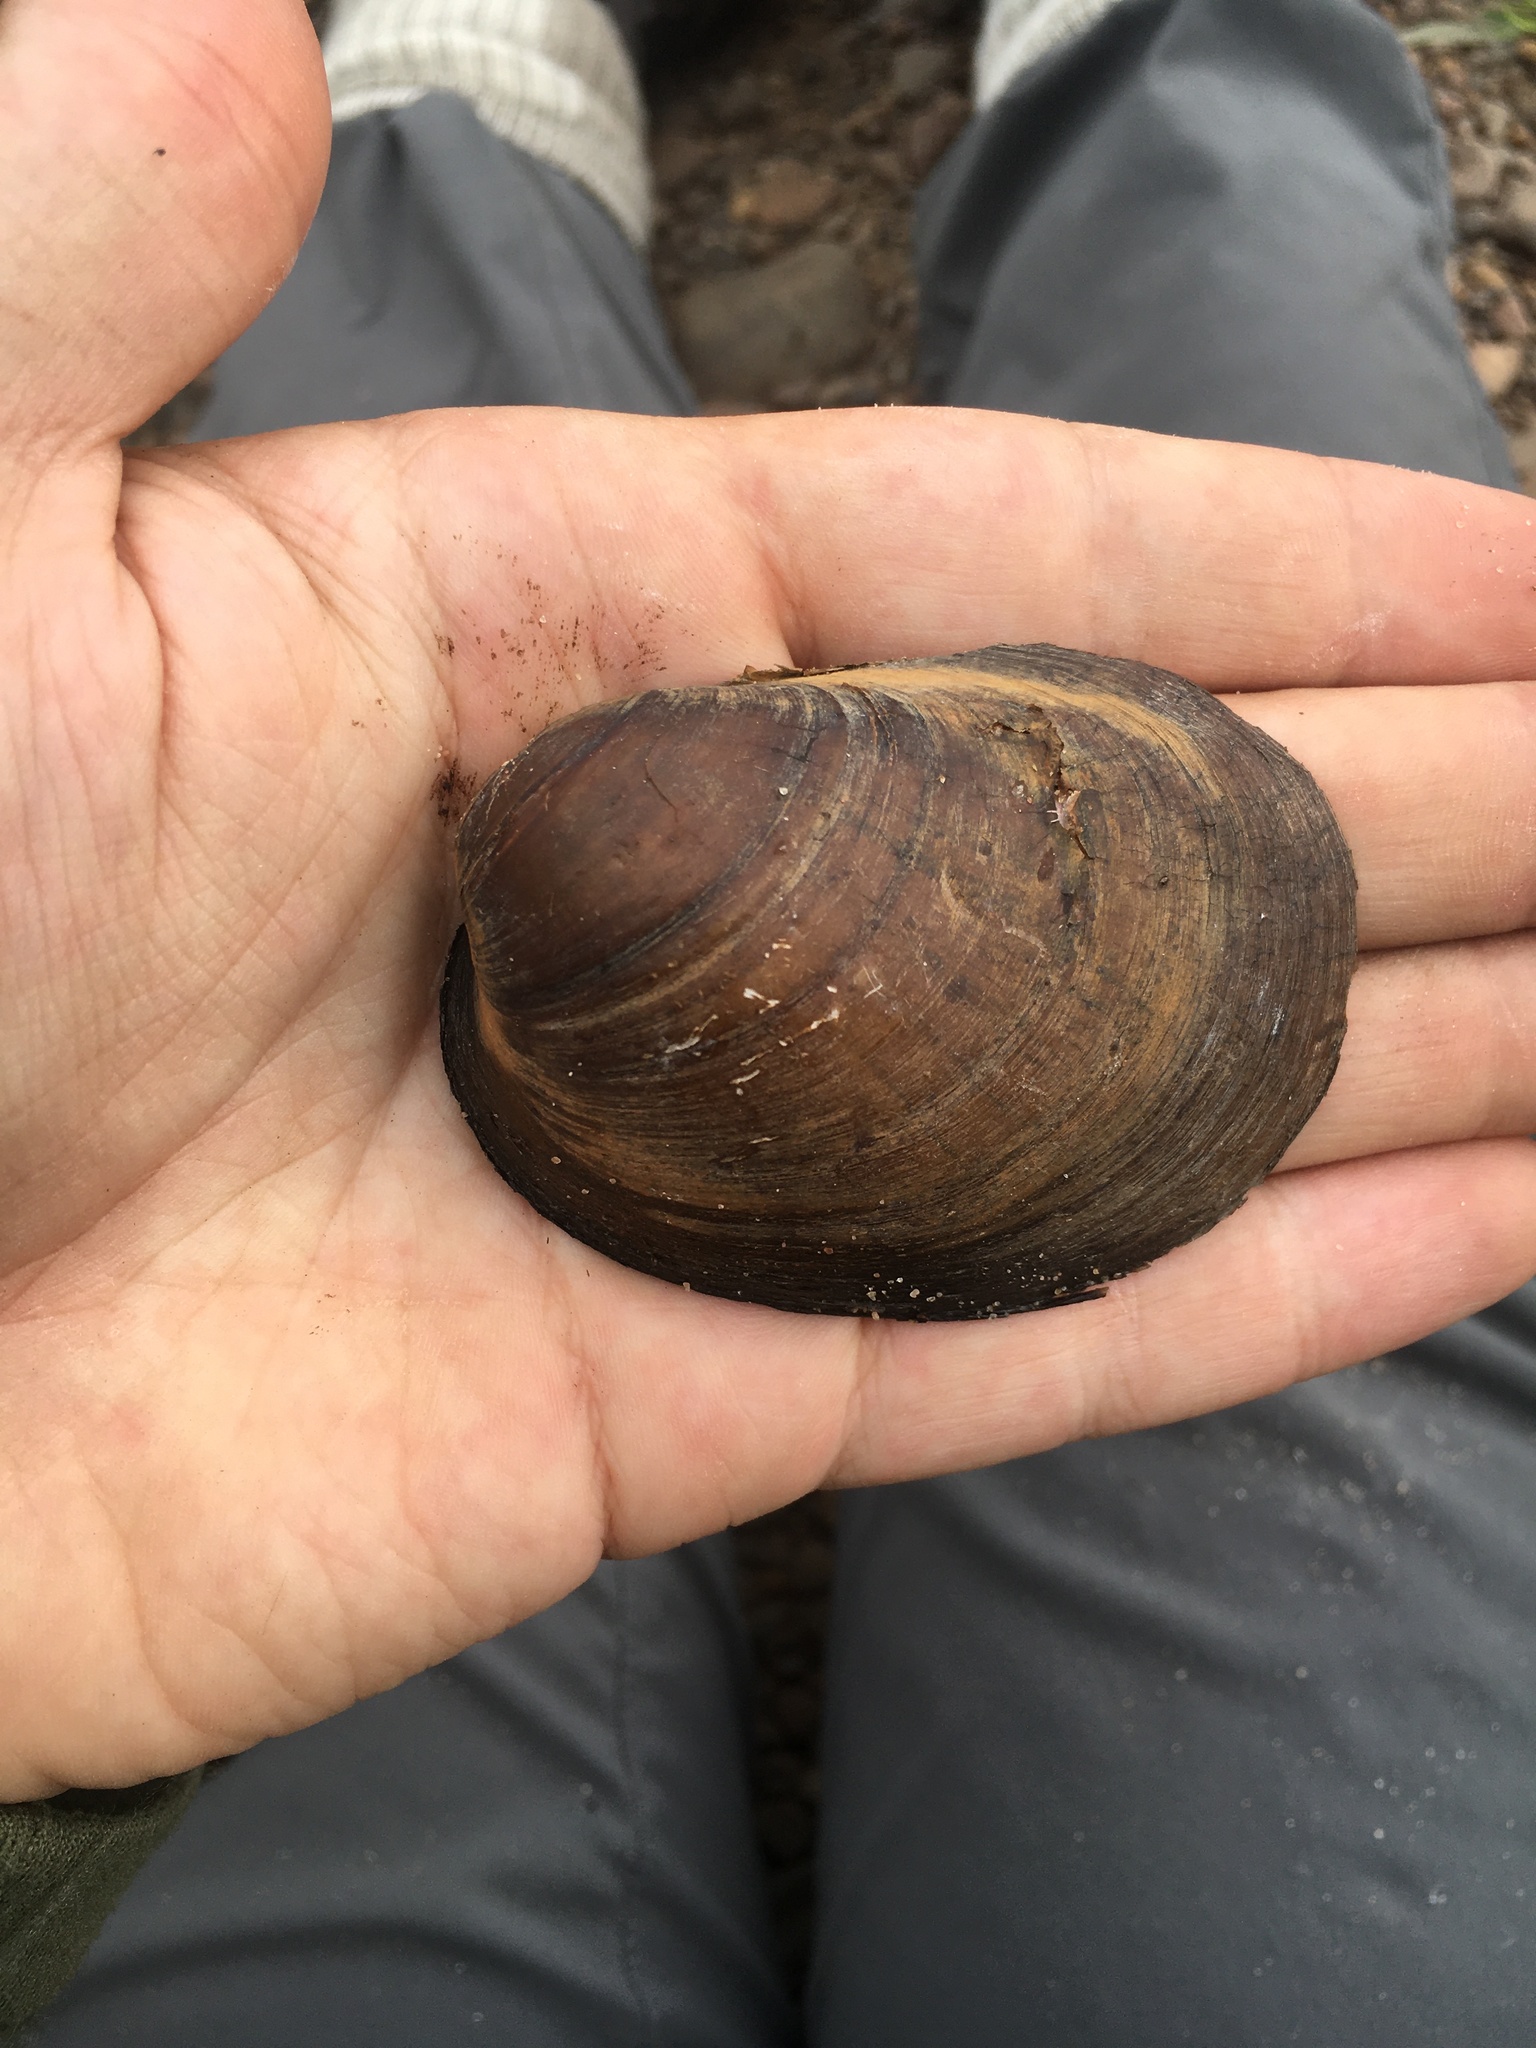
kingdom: Animalia
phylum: Mollusca
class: Bivalvia
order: Unionida
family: Unionidae
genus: Obovaria
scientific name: Obovaria olivaria
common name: Hickorynut
